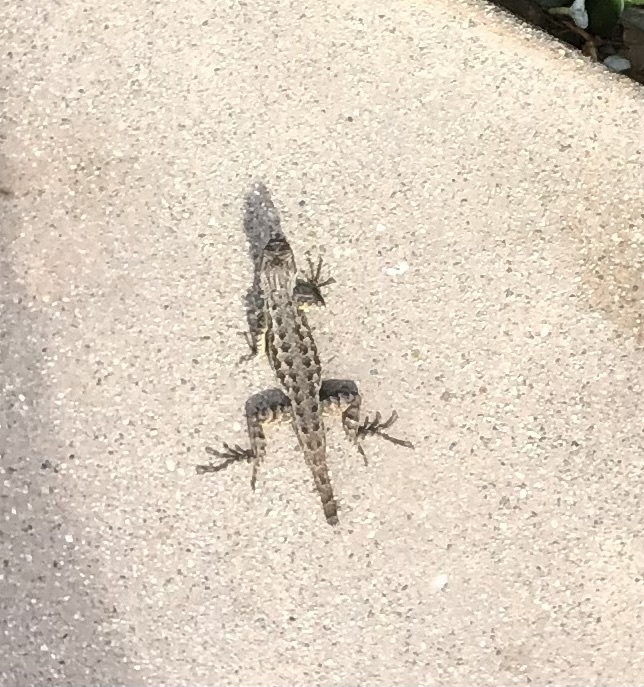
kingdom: Animalia
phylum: Chordata
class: Squamata
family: Phrynosomatidae
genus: Sceloporus
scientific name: Sceloporus occidentalis
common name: Western fence lizard
